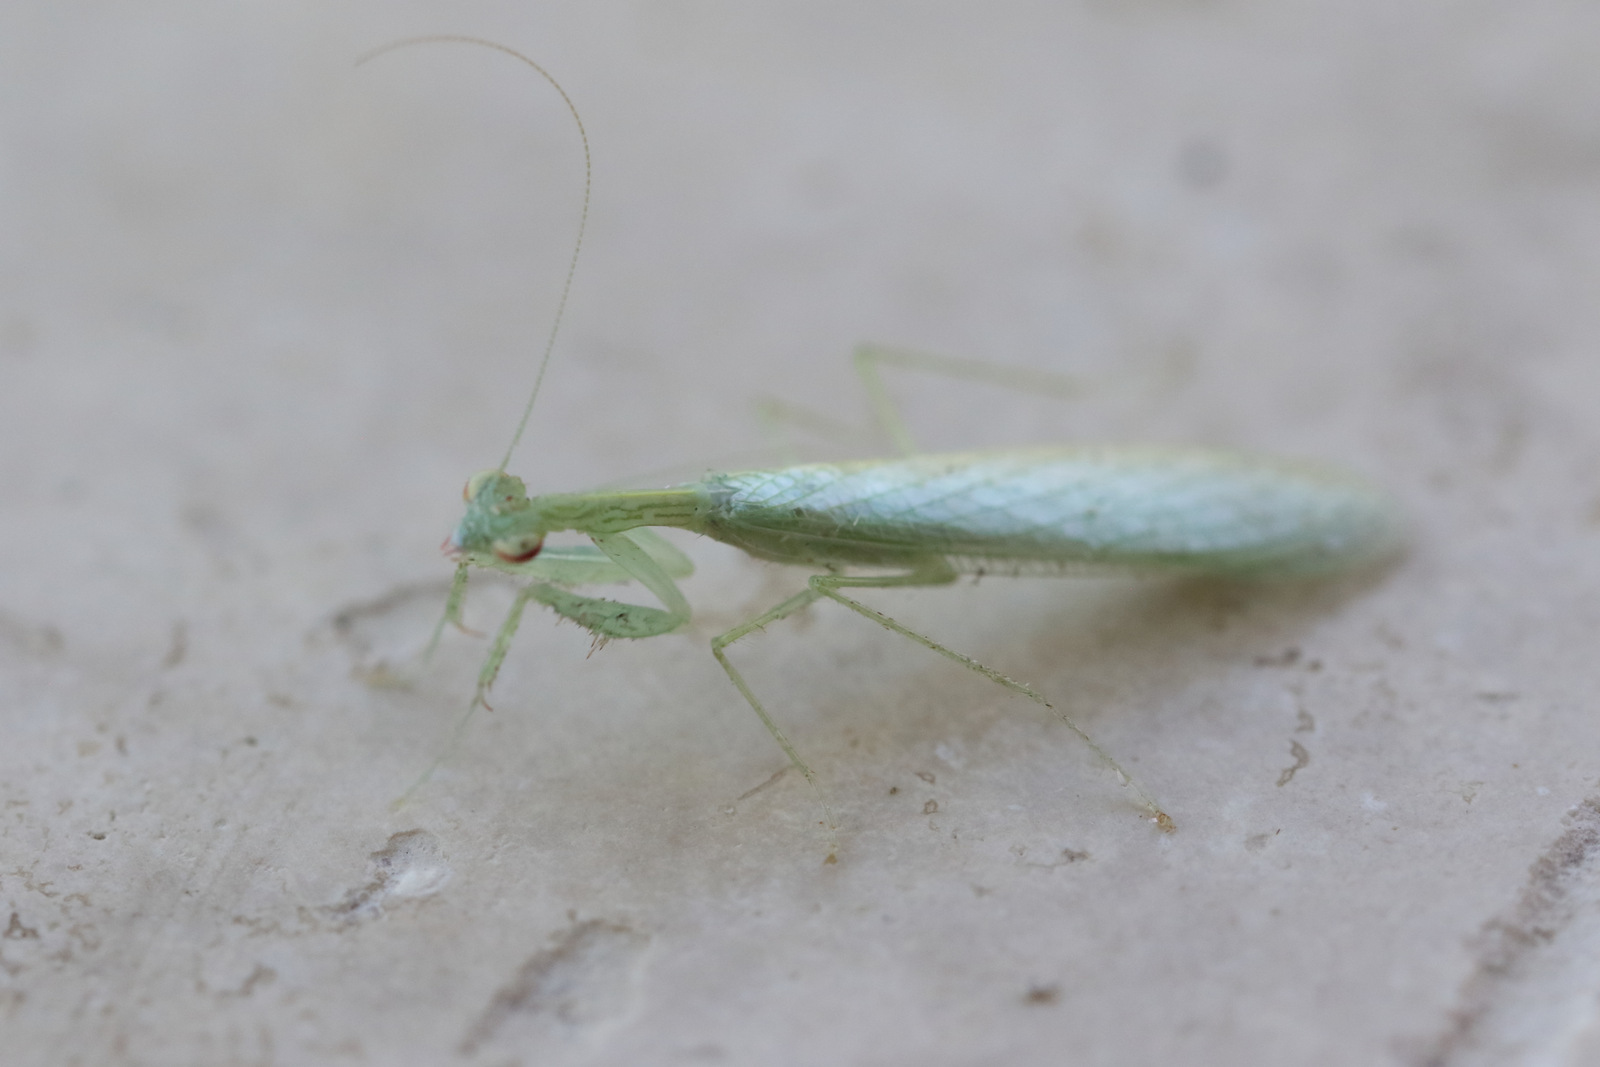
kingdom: Animalia
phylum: Arthropoda
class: Insecta
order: Mantodea
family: Nanomantidae
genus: Kongobatha
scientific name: Kongobatha diademata
